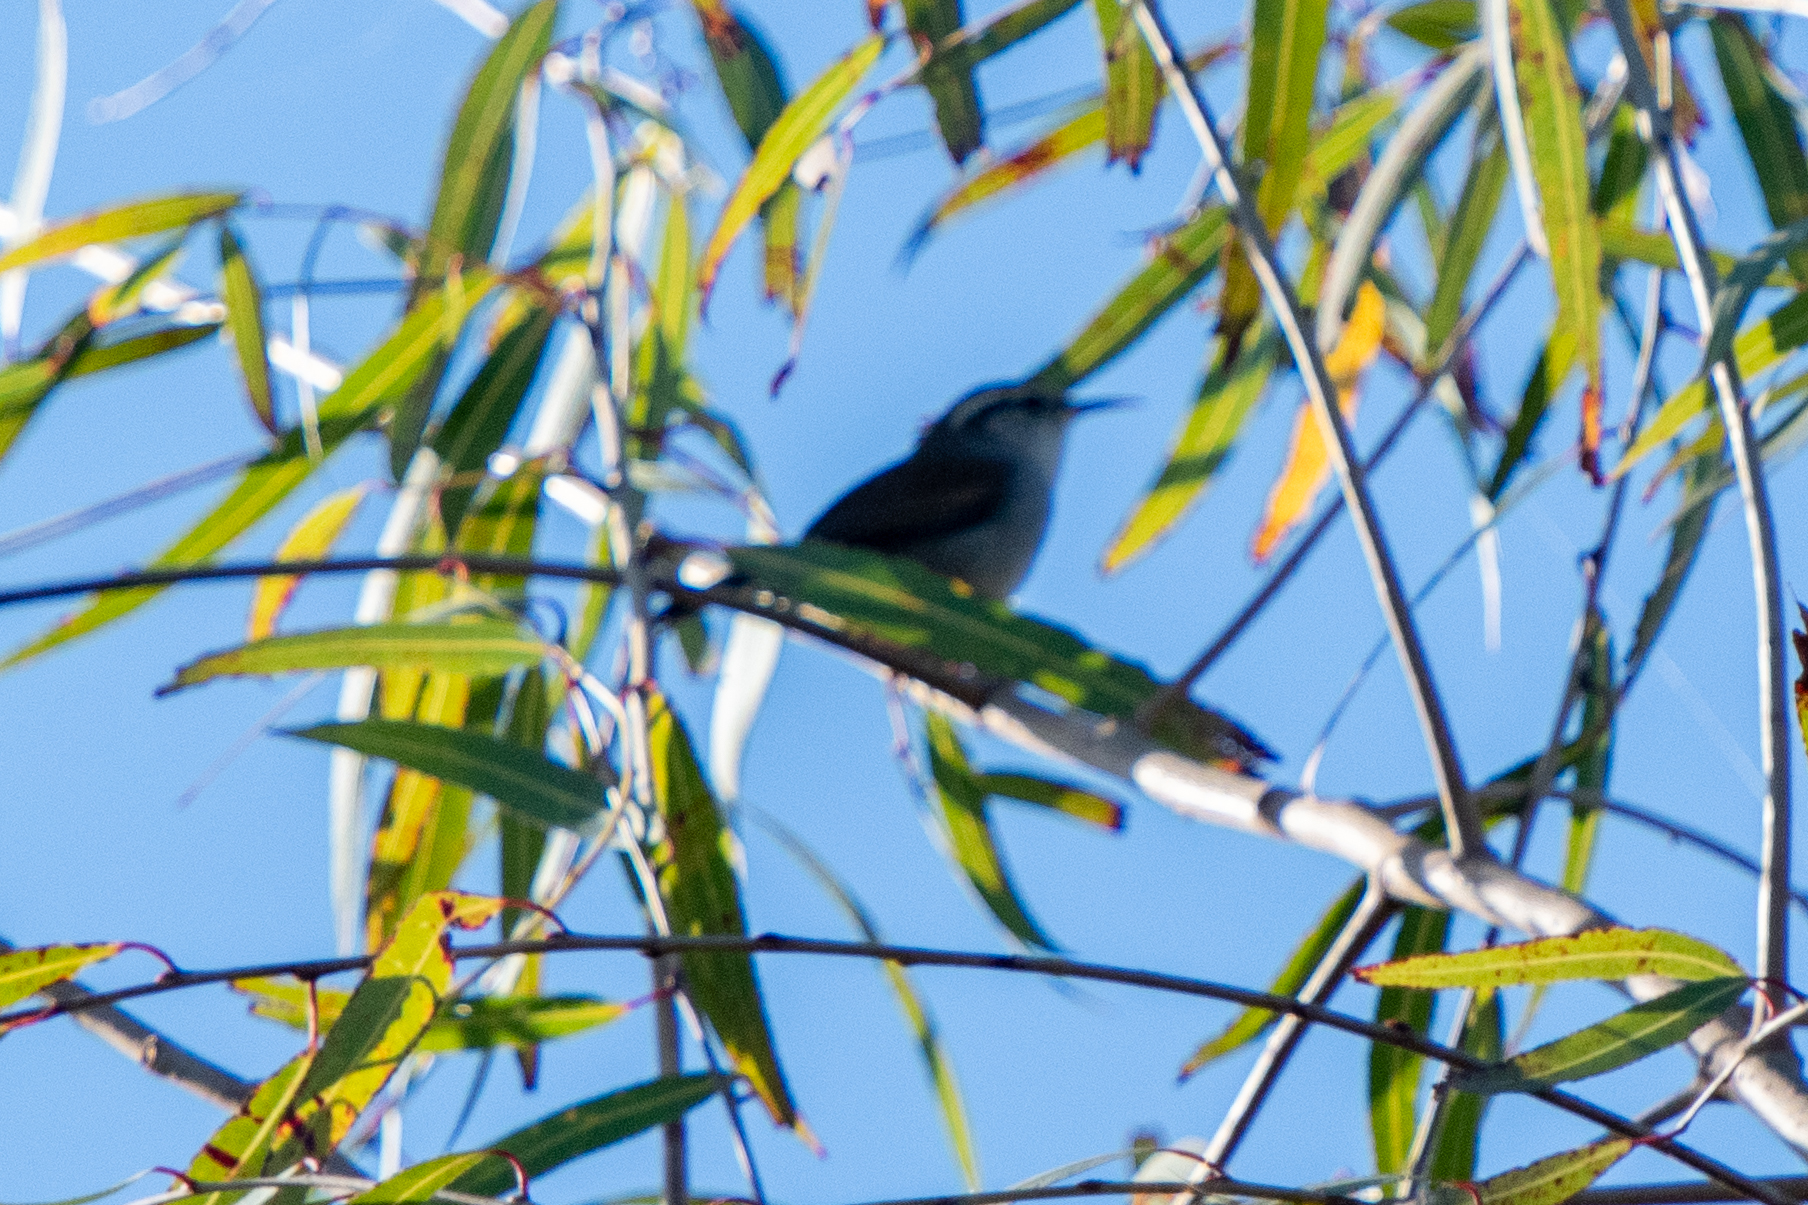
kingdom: Animalia
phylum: Chordata
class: Aves
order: Passeriformes
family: Troglodytidae
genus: Thryomanes
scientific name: Thryomanes bewickii
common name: Bewick's wren
